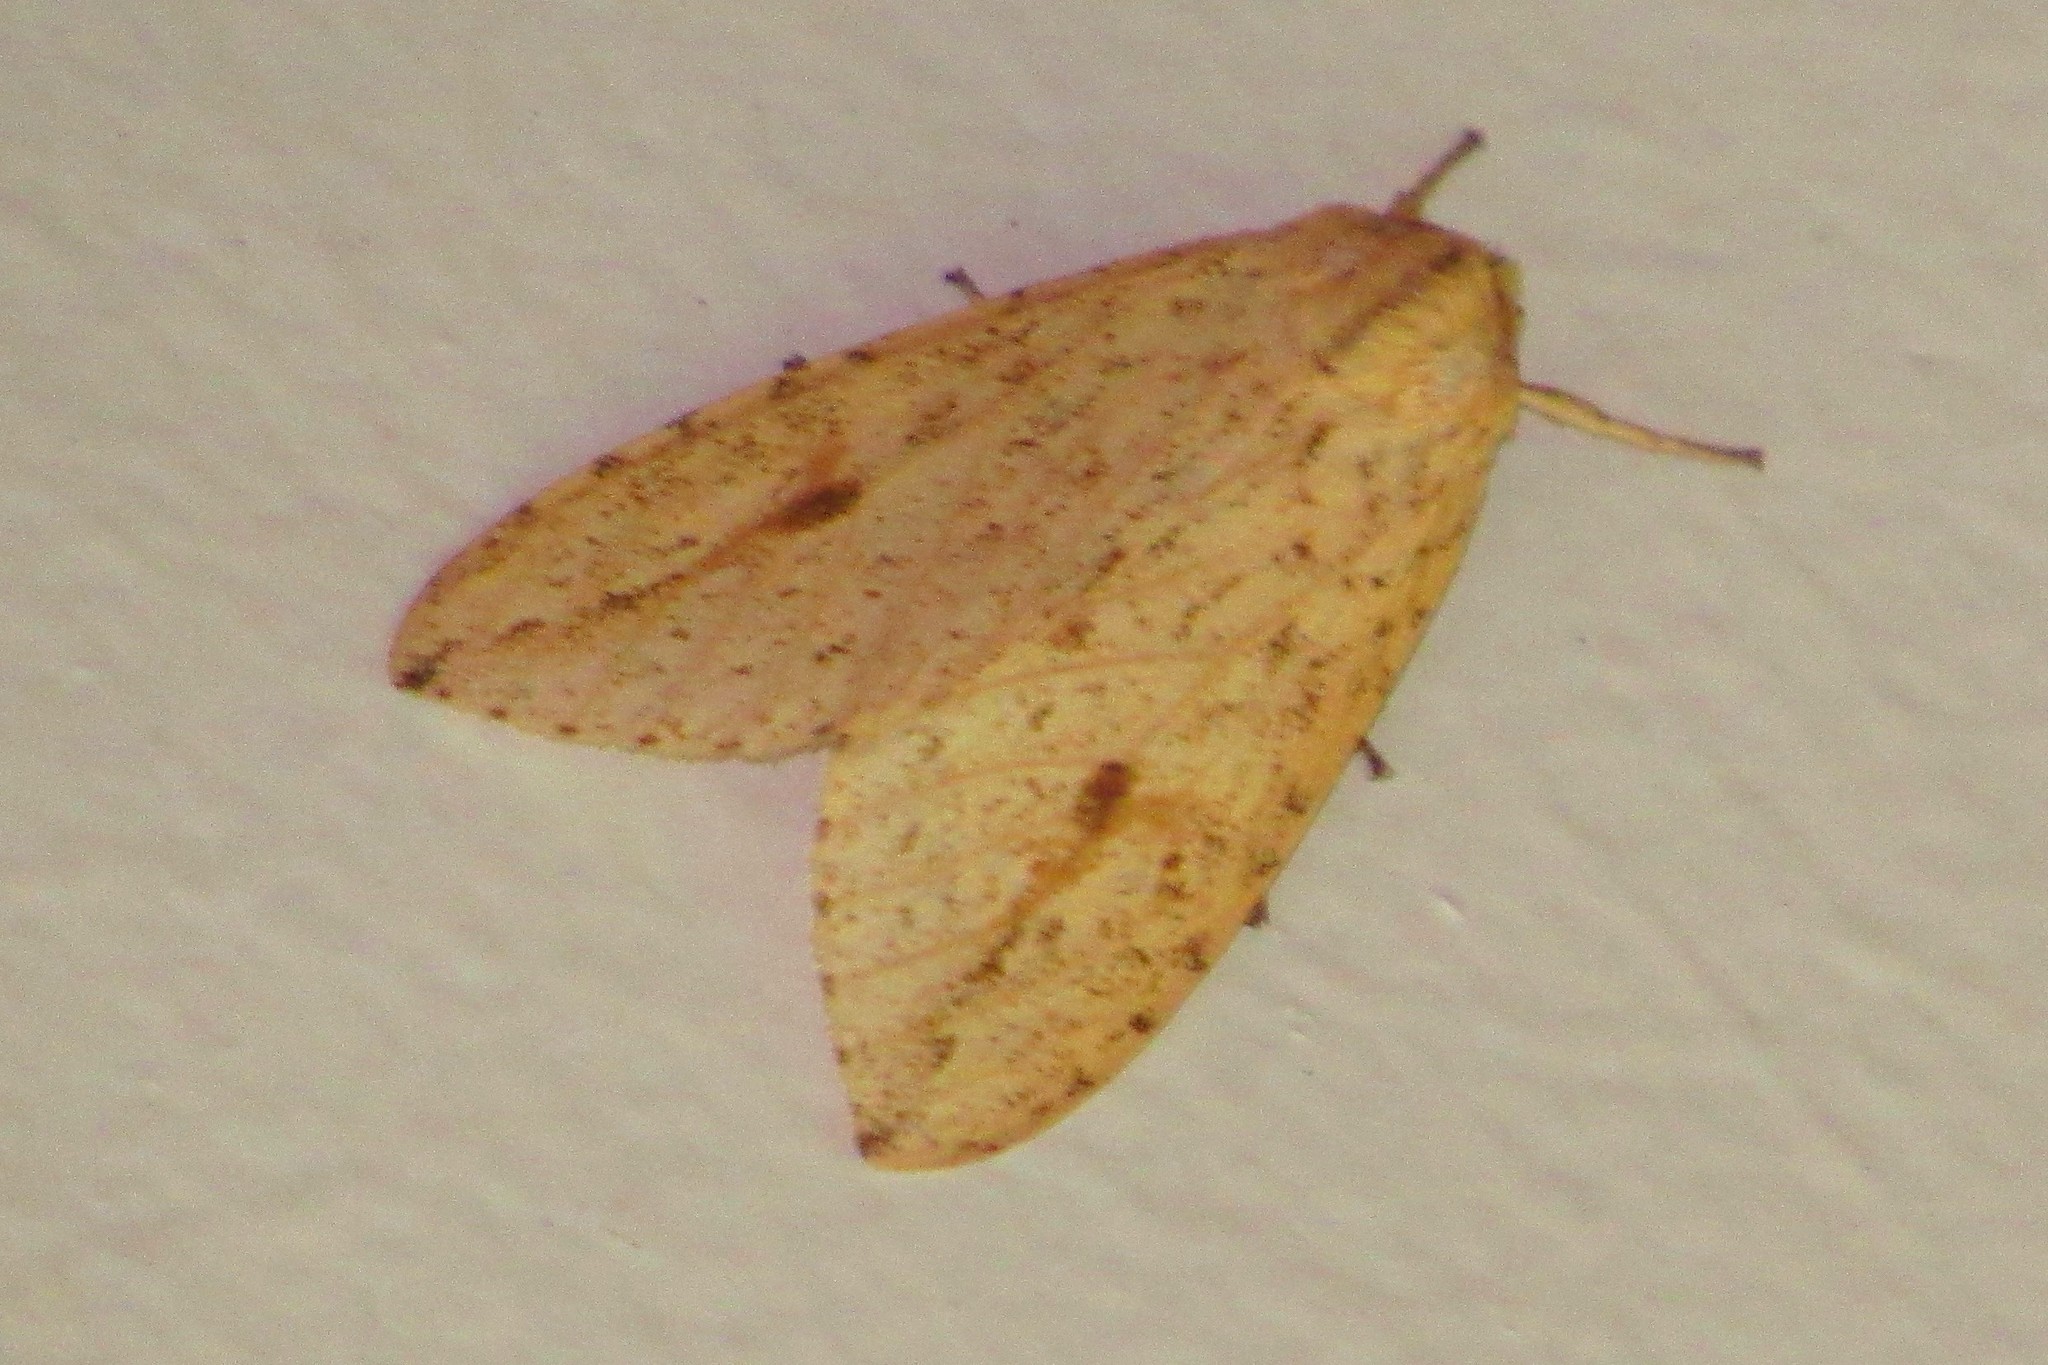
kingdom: Animalia
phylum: Arthropoda
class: Insecta
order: Lepidoptera
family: Erebidae
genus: Leucanopsis
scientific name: Leucanopsis coniota
